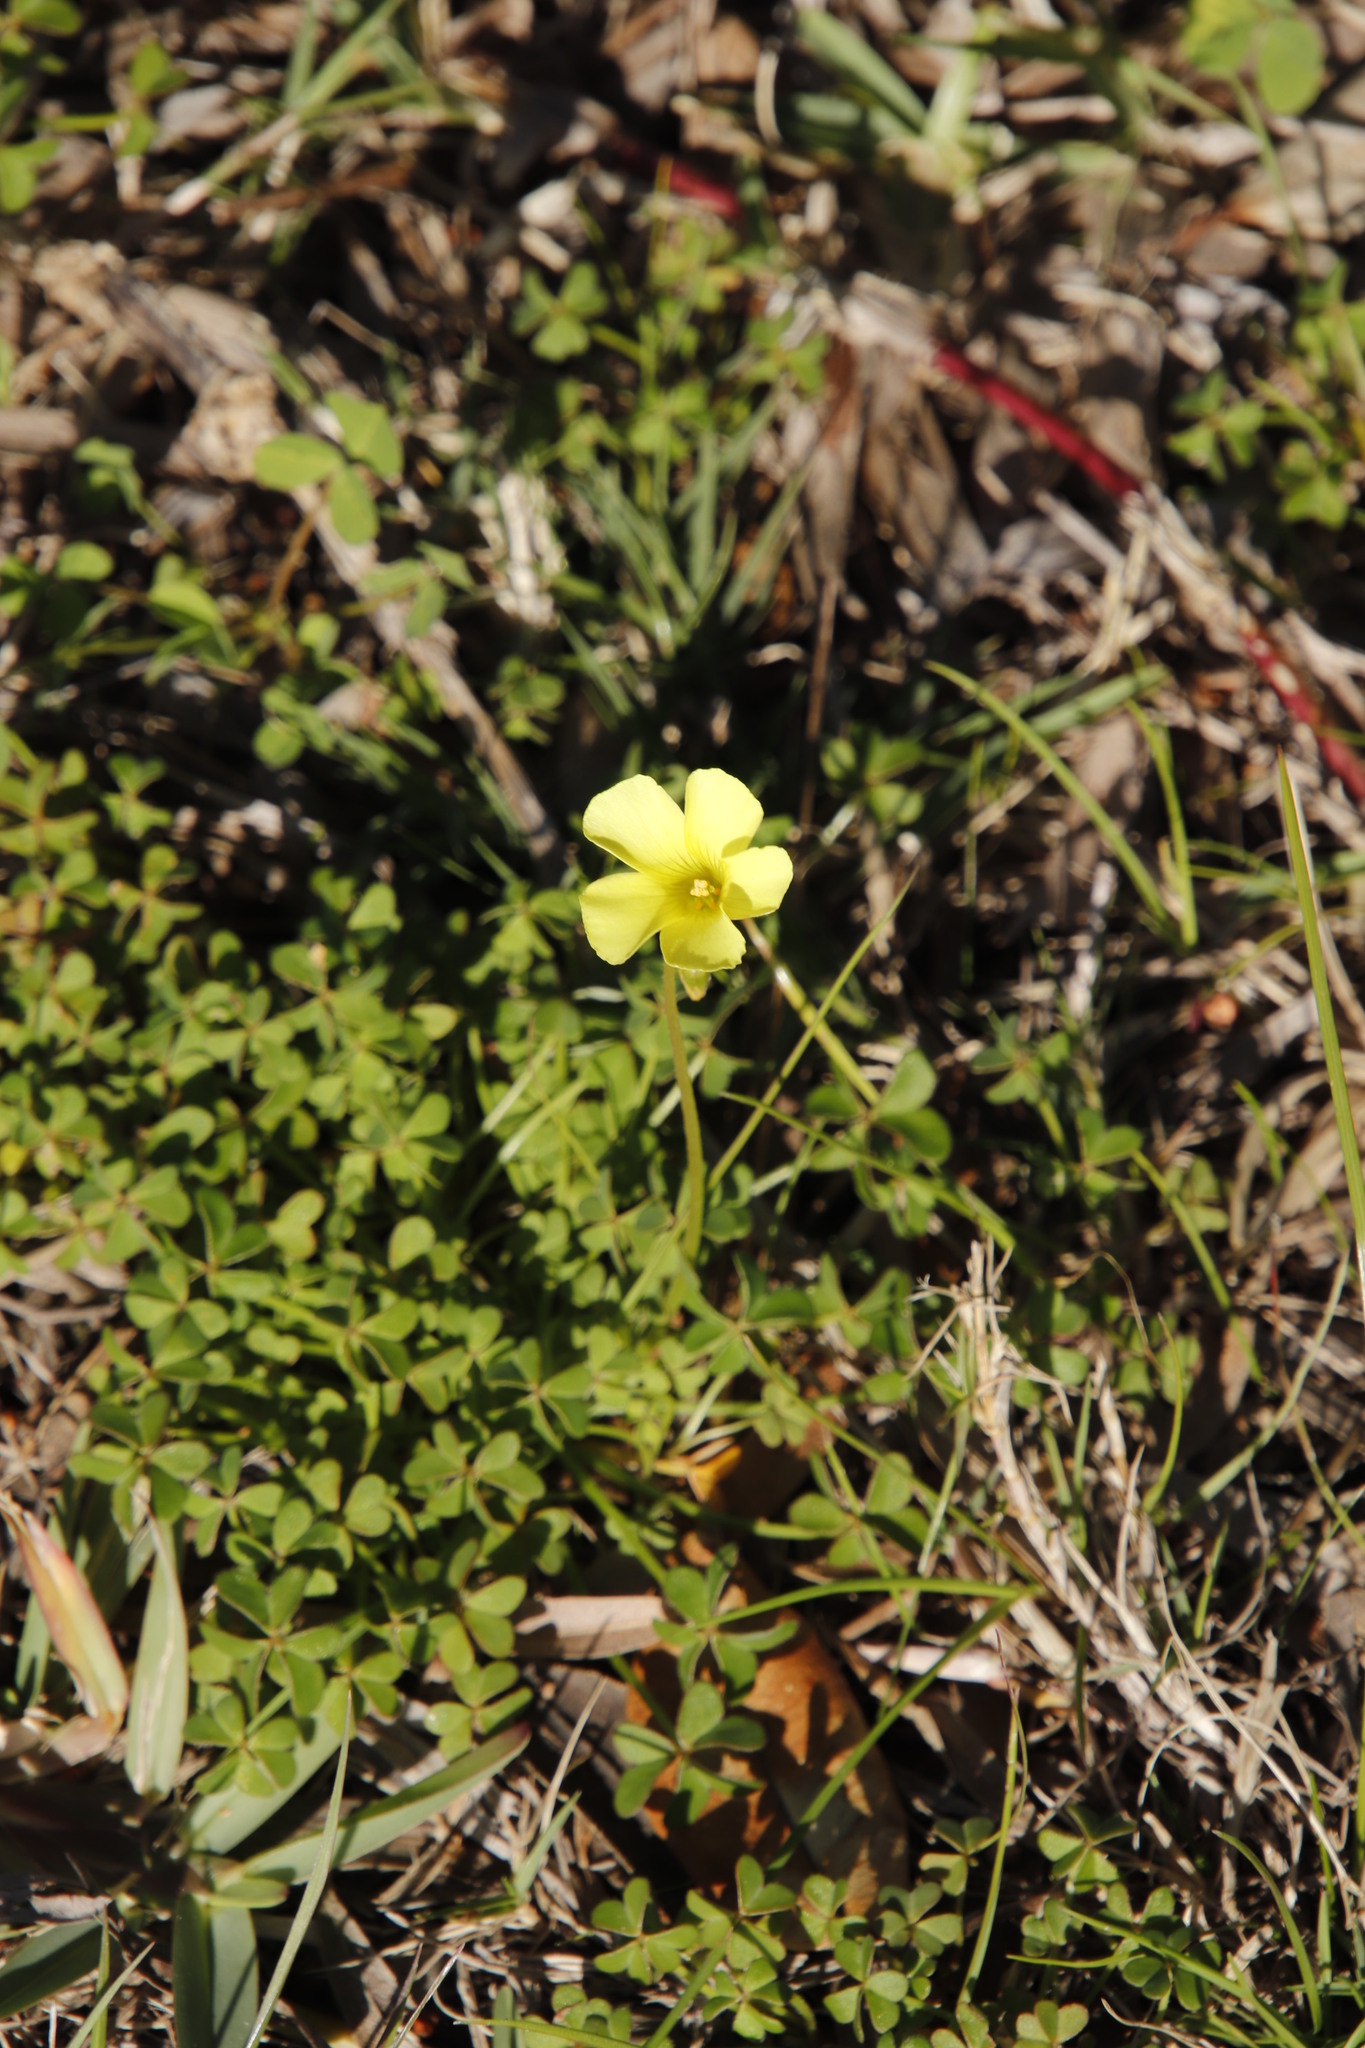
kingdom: Plantae
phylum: Tracheophyta
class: Magnoliopsida
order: Oxalidales
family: Oxalidaceae
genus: Oxalis
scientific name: Oxalis pes-caprae
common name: Bermuda-buttercup
